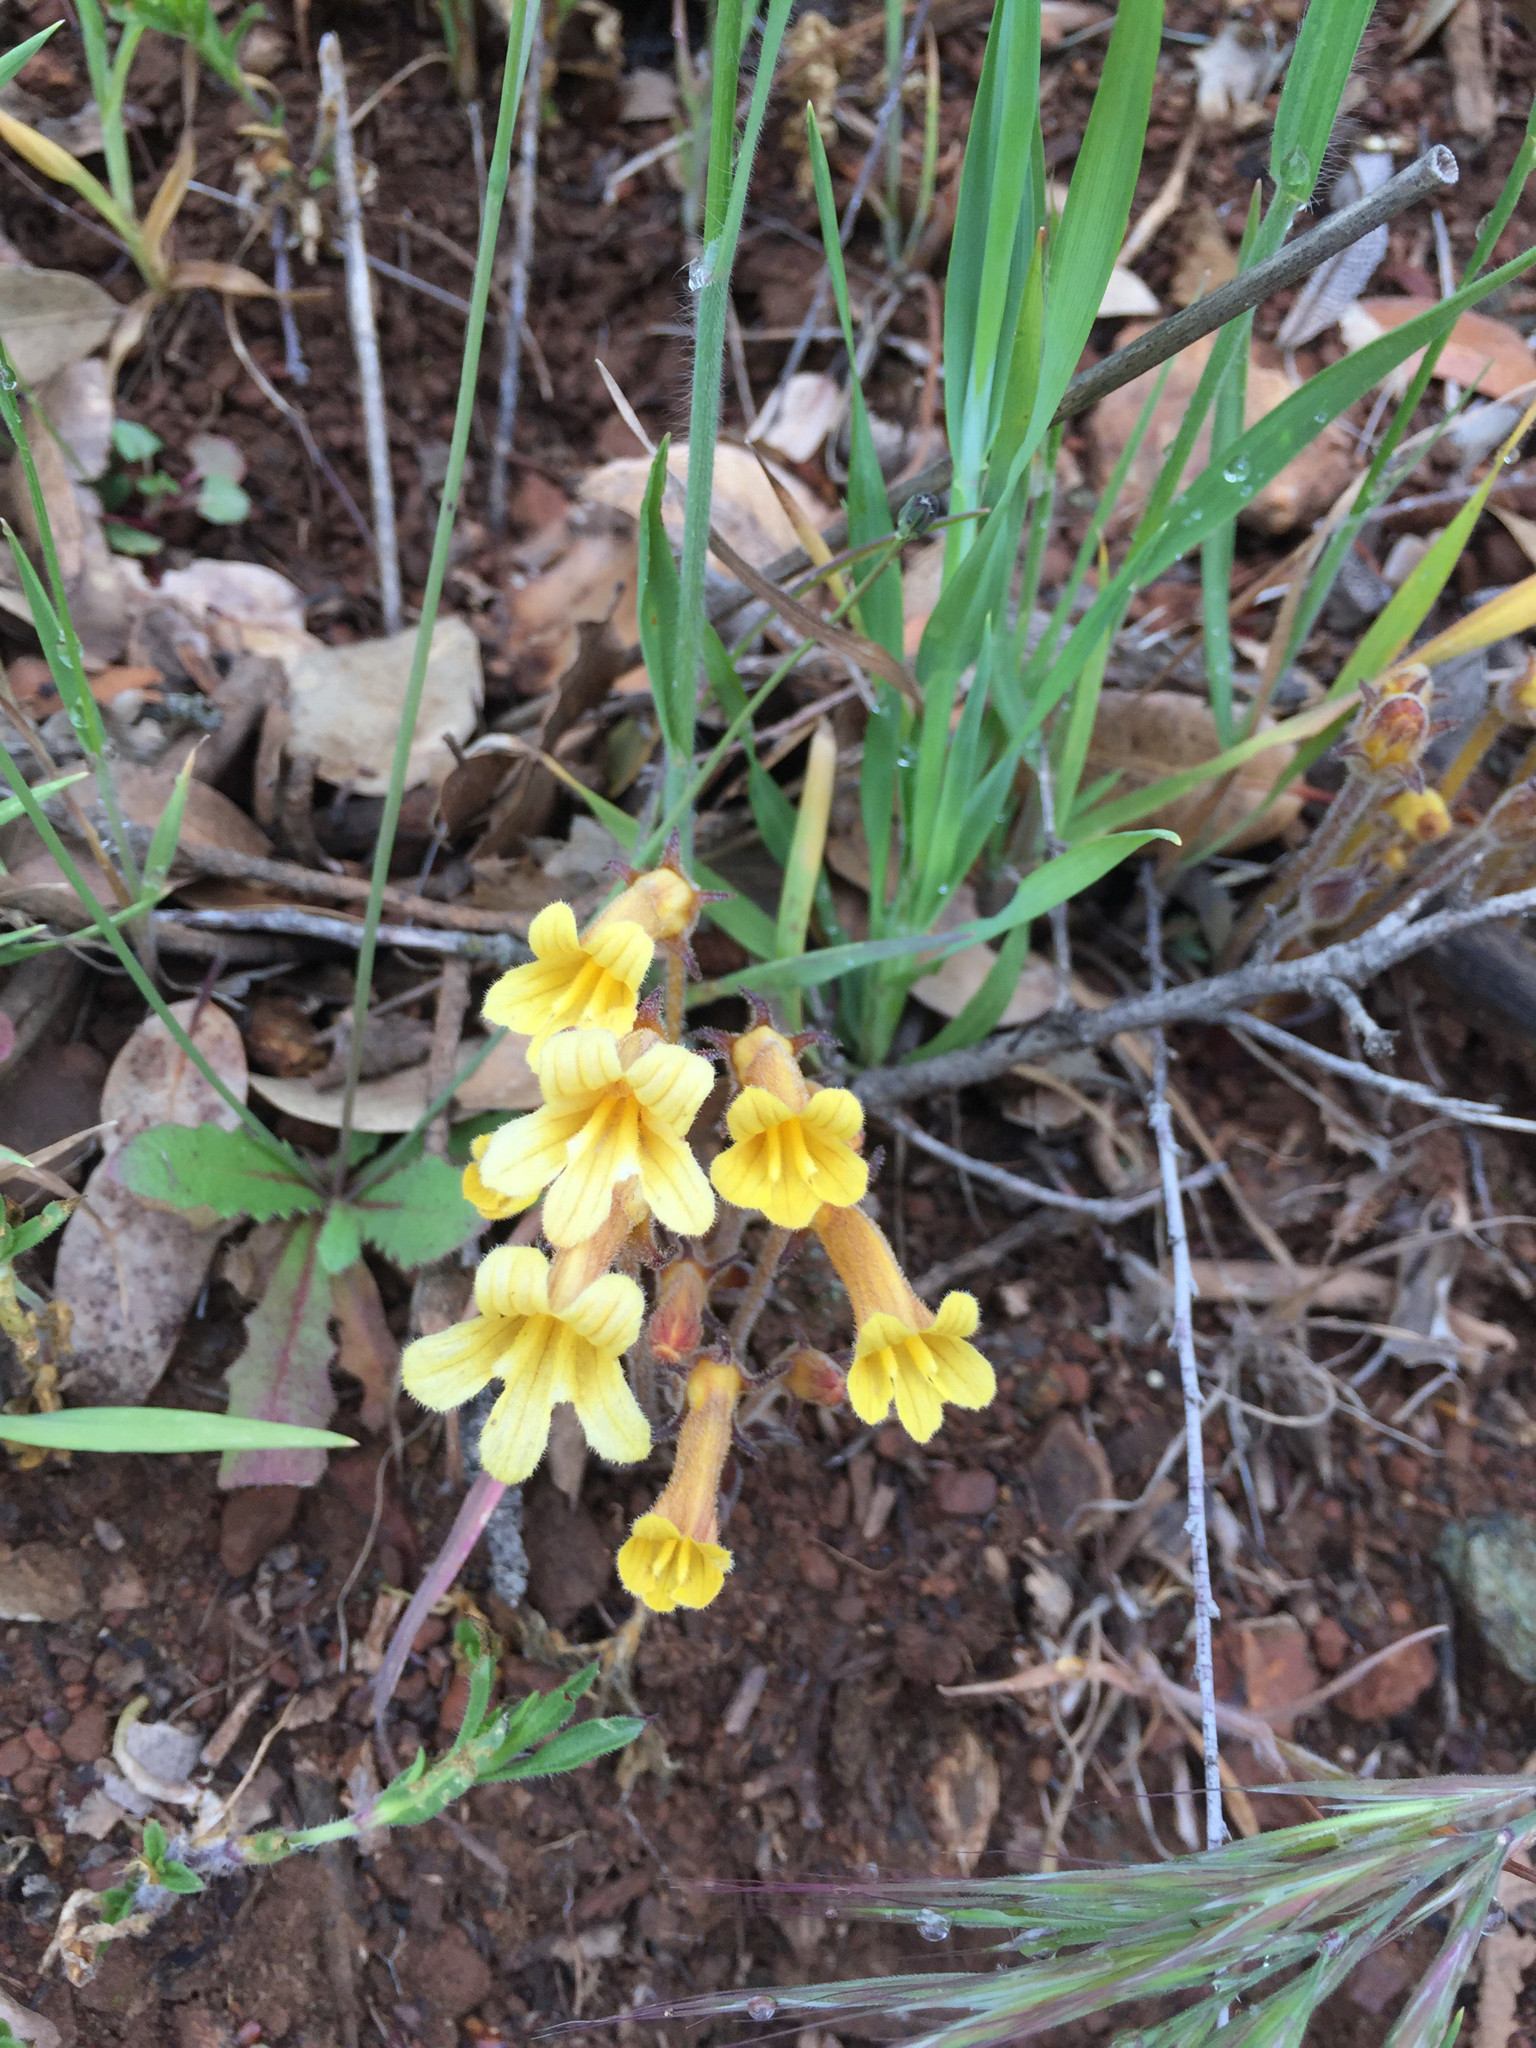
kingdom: Plantae
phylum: Tracheophyta
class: Magnoliopsida
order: Lamiales
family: Orobanchaceae
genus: Aphyllon
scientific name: Aphyllon franciscanum
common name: San francisco broomrape
